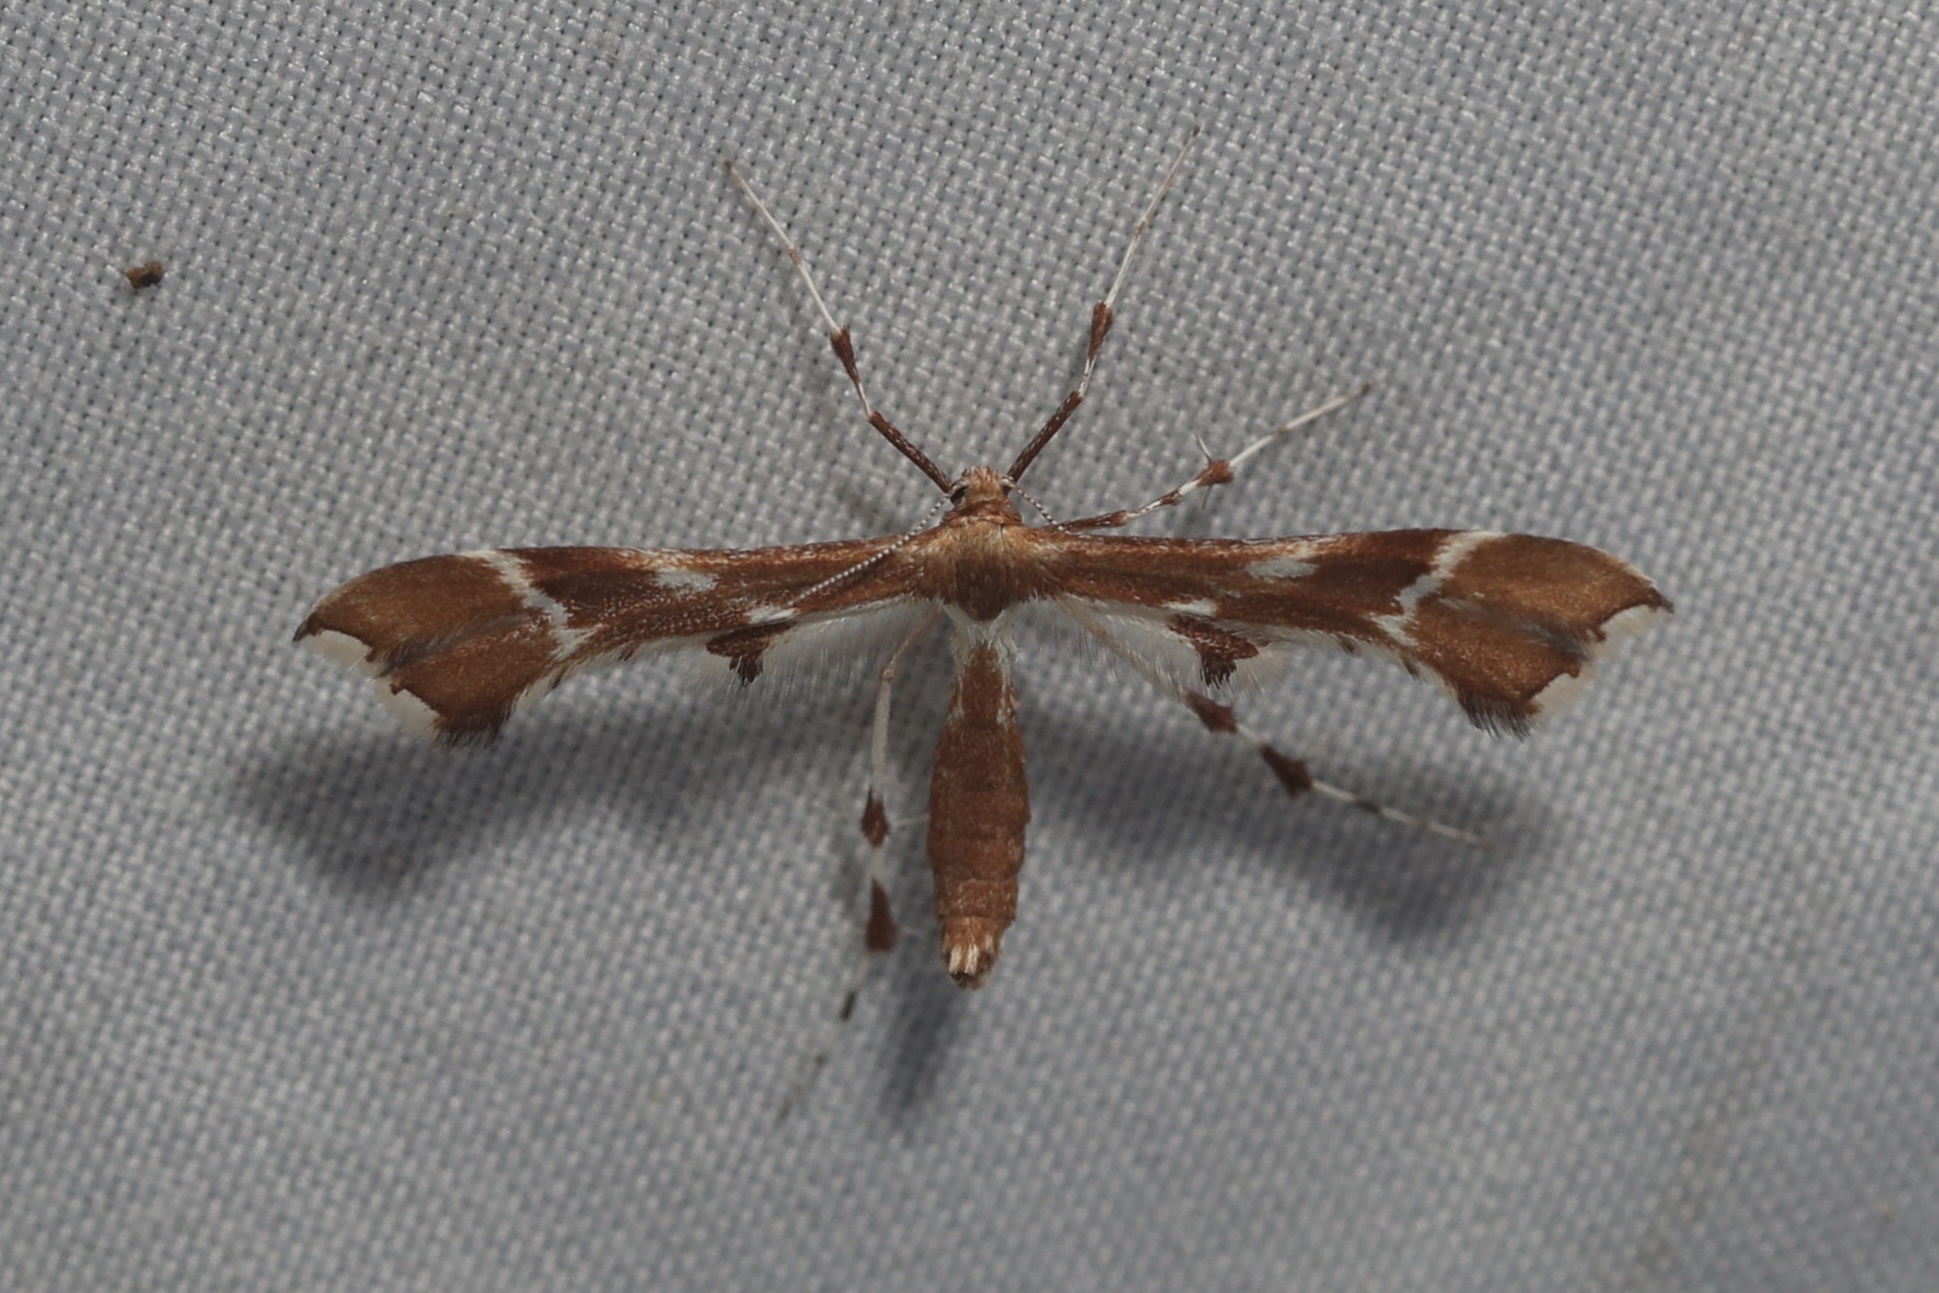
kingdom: Animalia
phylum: Arthropoda
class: Insecta
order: Lepidoptera
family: Pterophoridae
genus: Cnaemidophorus
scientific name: Cnaemidophorus rhododactyla
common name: Rose plume
